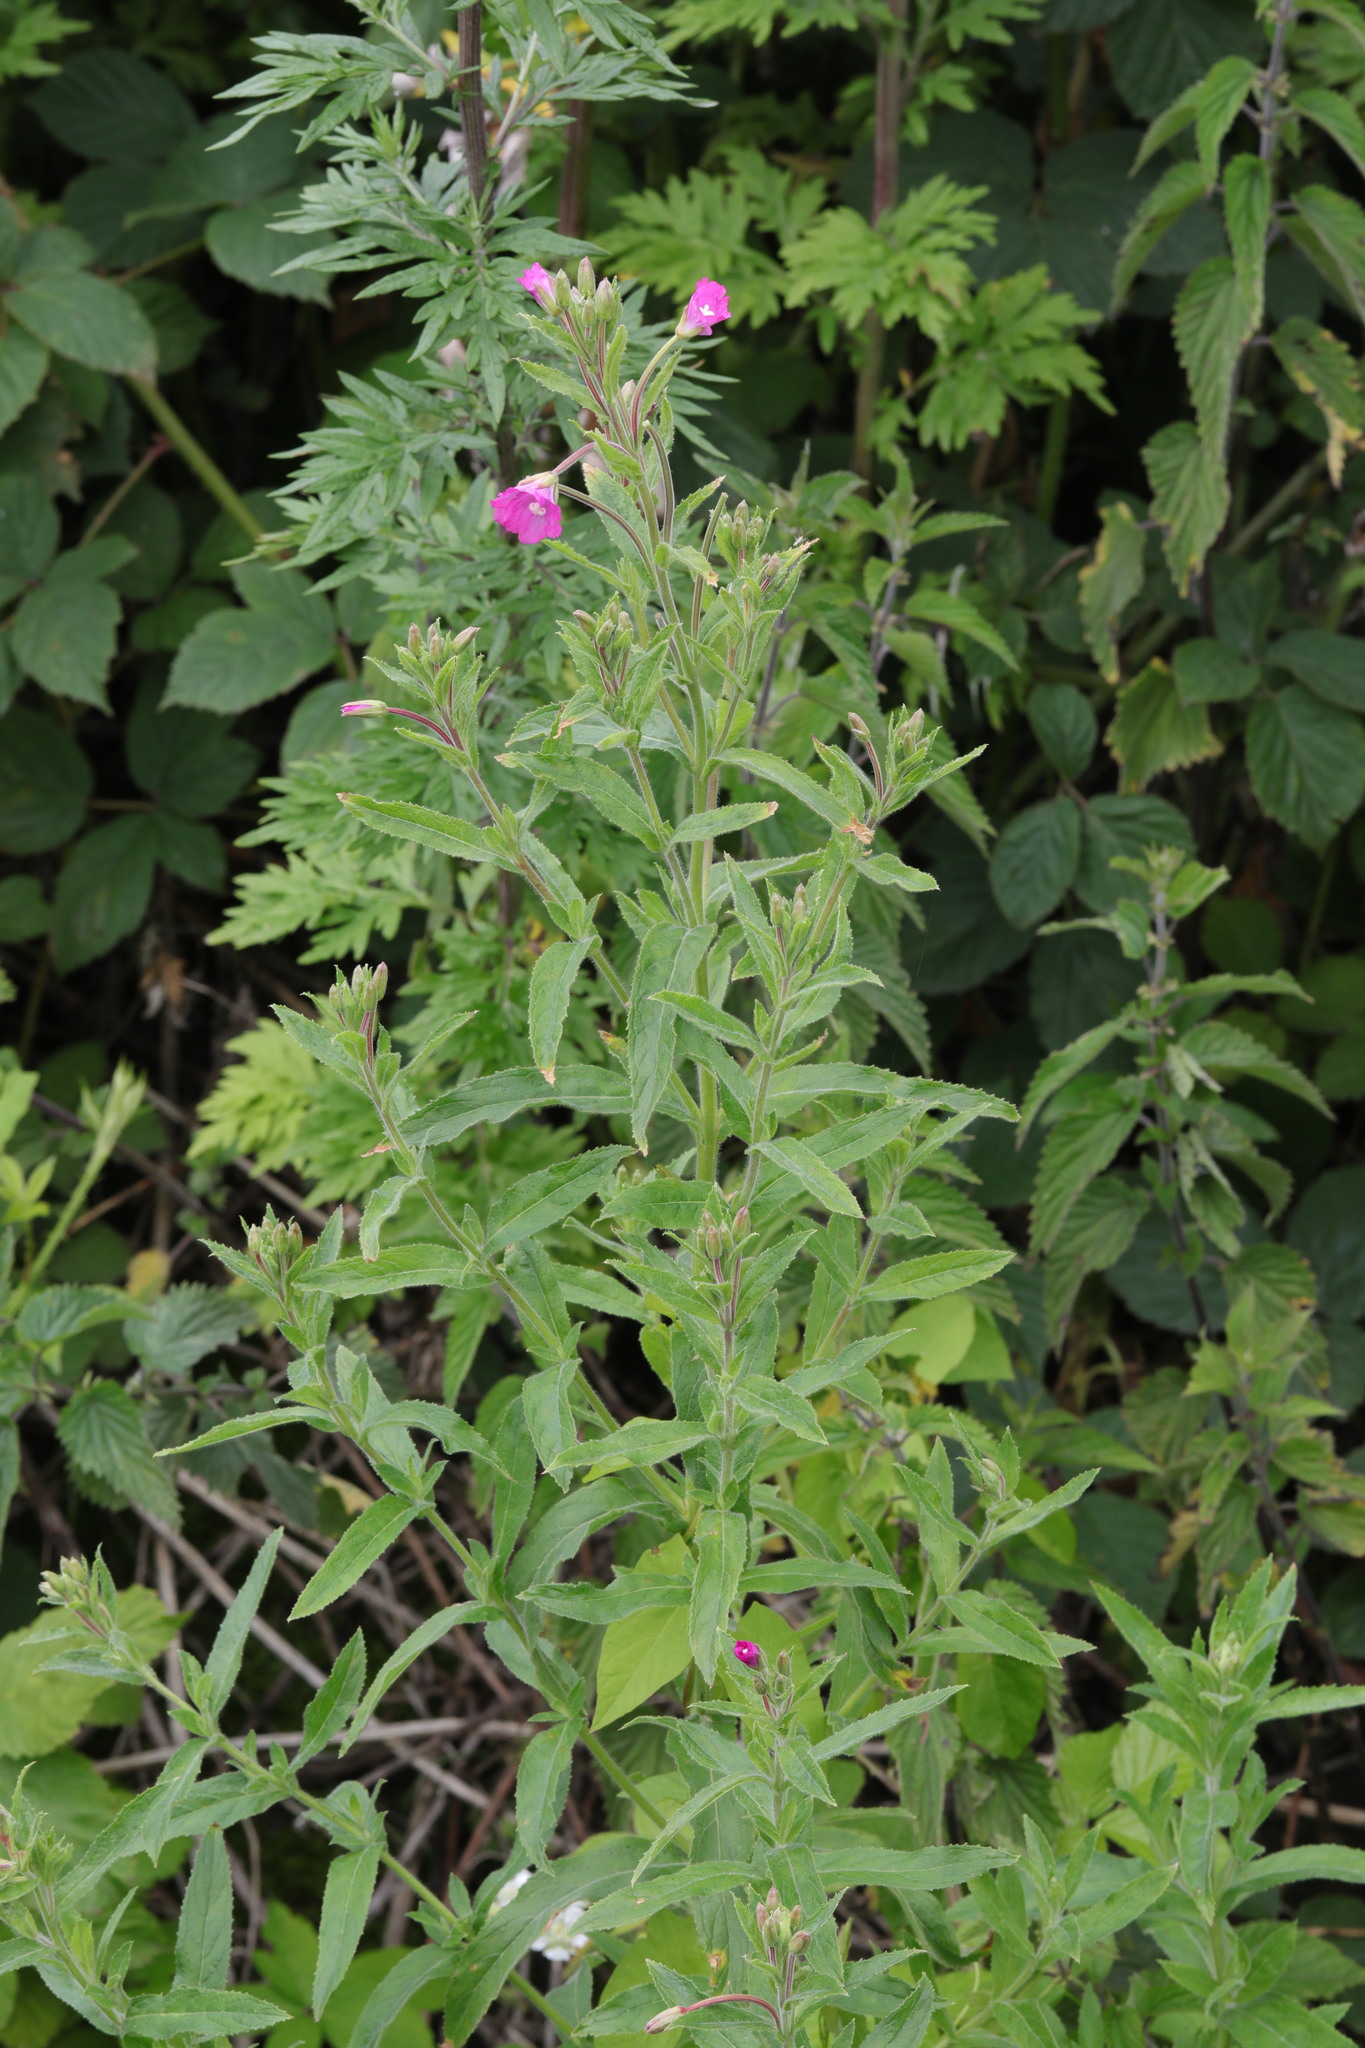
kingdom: Plantae
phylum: Tracheophyta
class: Magnoliopsida
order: Myrtales
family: Onagraceae
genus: Epilobium
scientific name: Epilobium hirsutum
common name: Great willowherb
